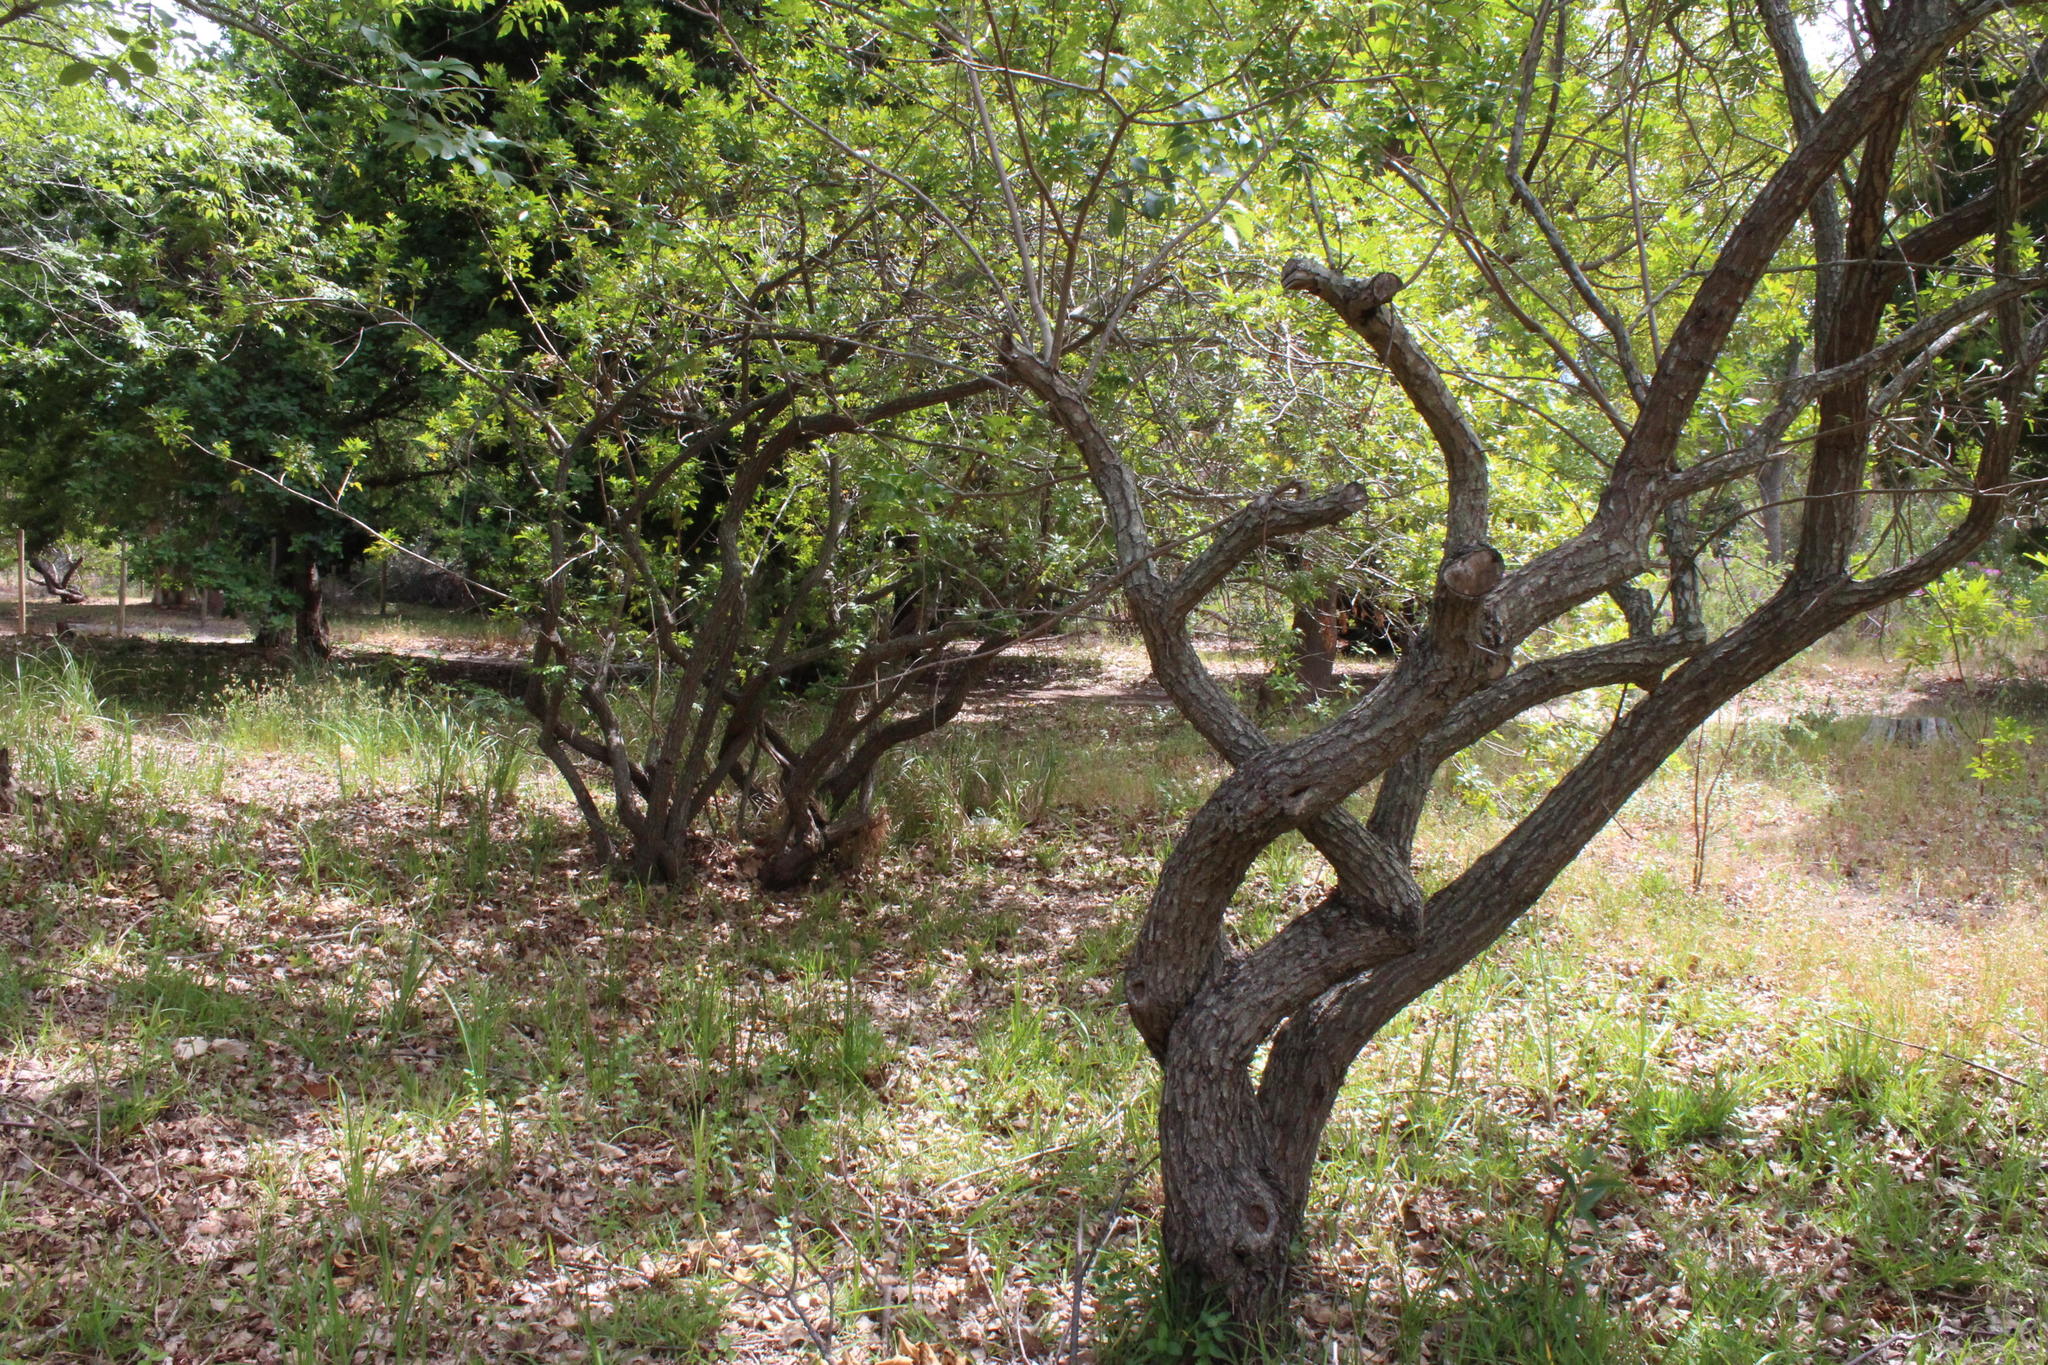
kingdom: Plantae
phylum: Tracheophyta
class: Magnoliopsida
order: Sapindales
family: Anacardiaceae
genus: Schinus
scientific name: Schinus terebinthifolia
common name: Brazilian peppertree
